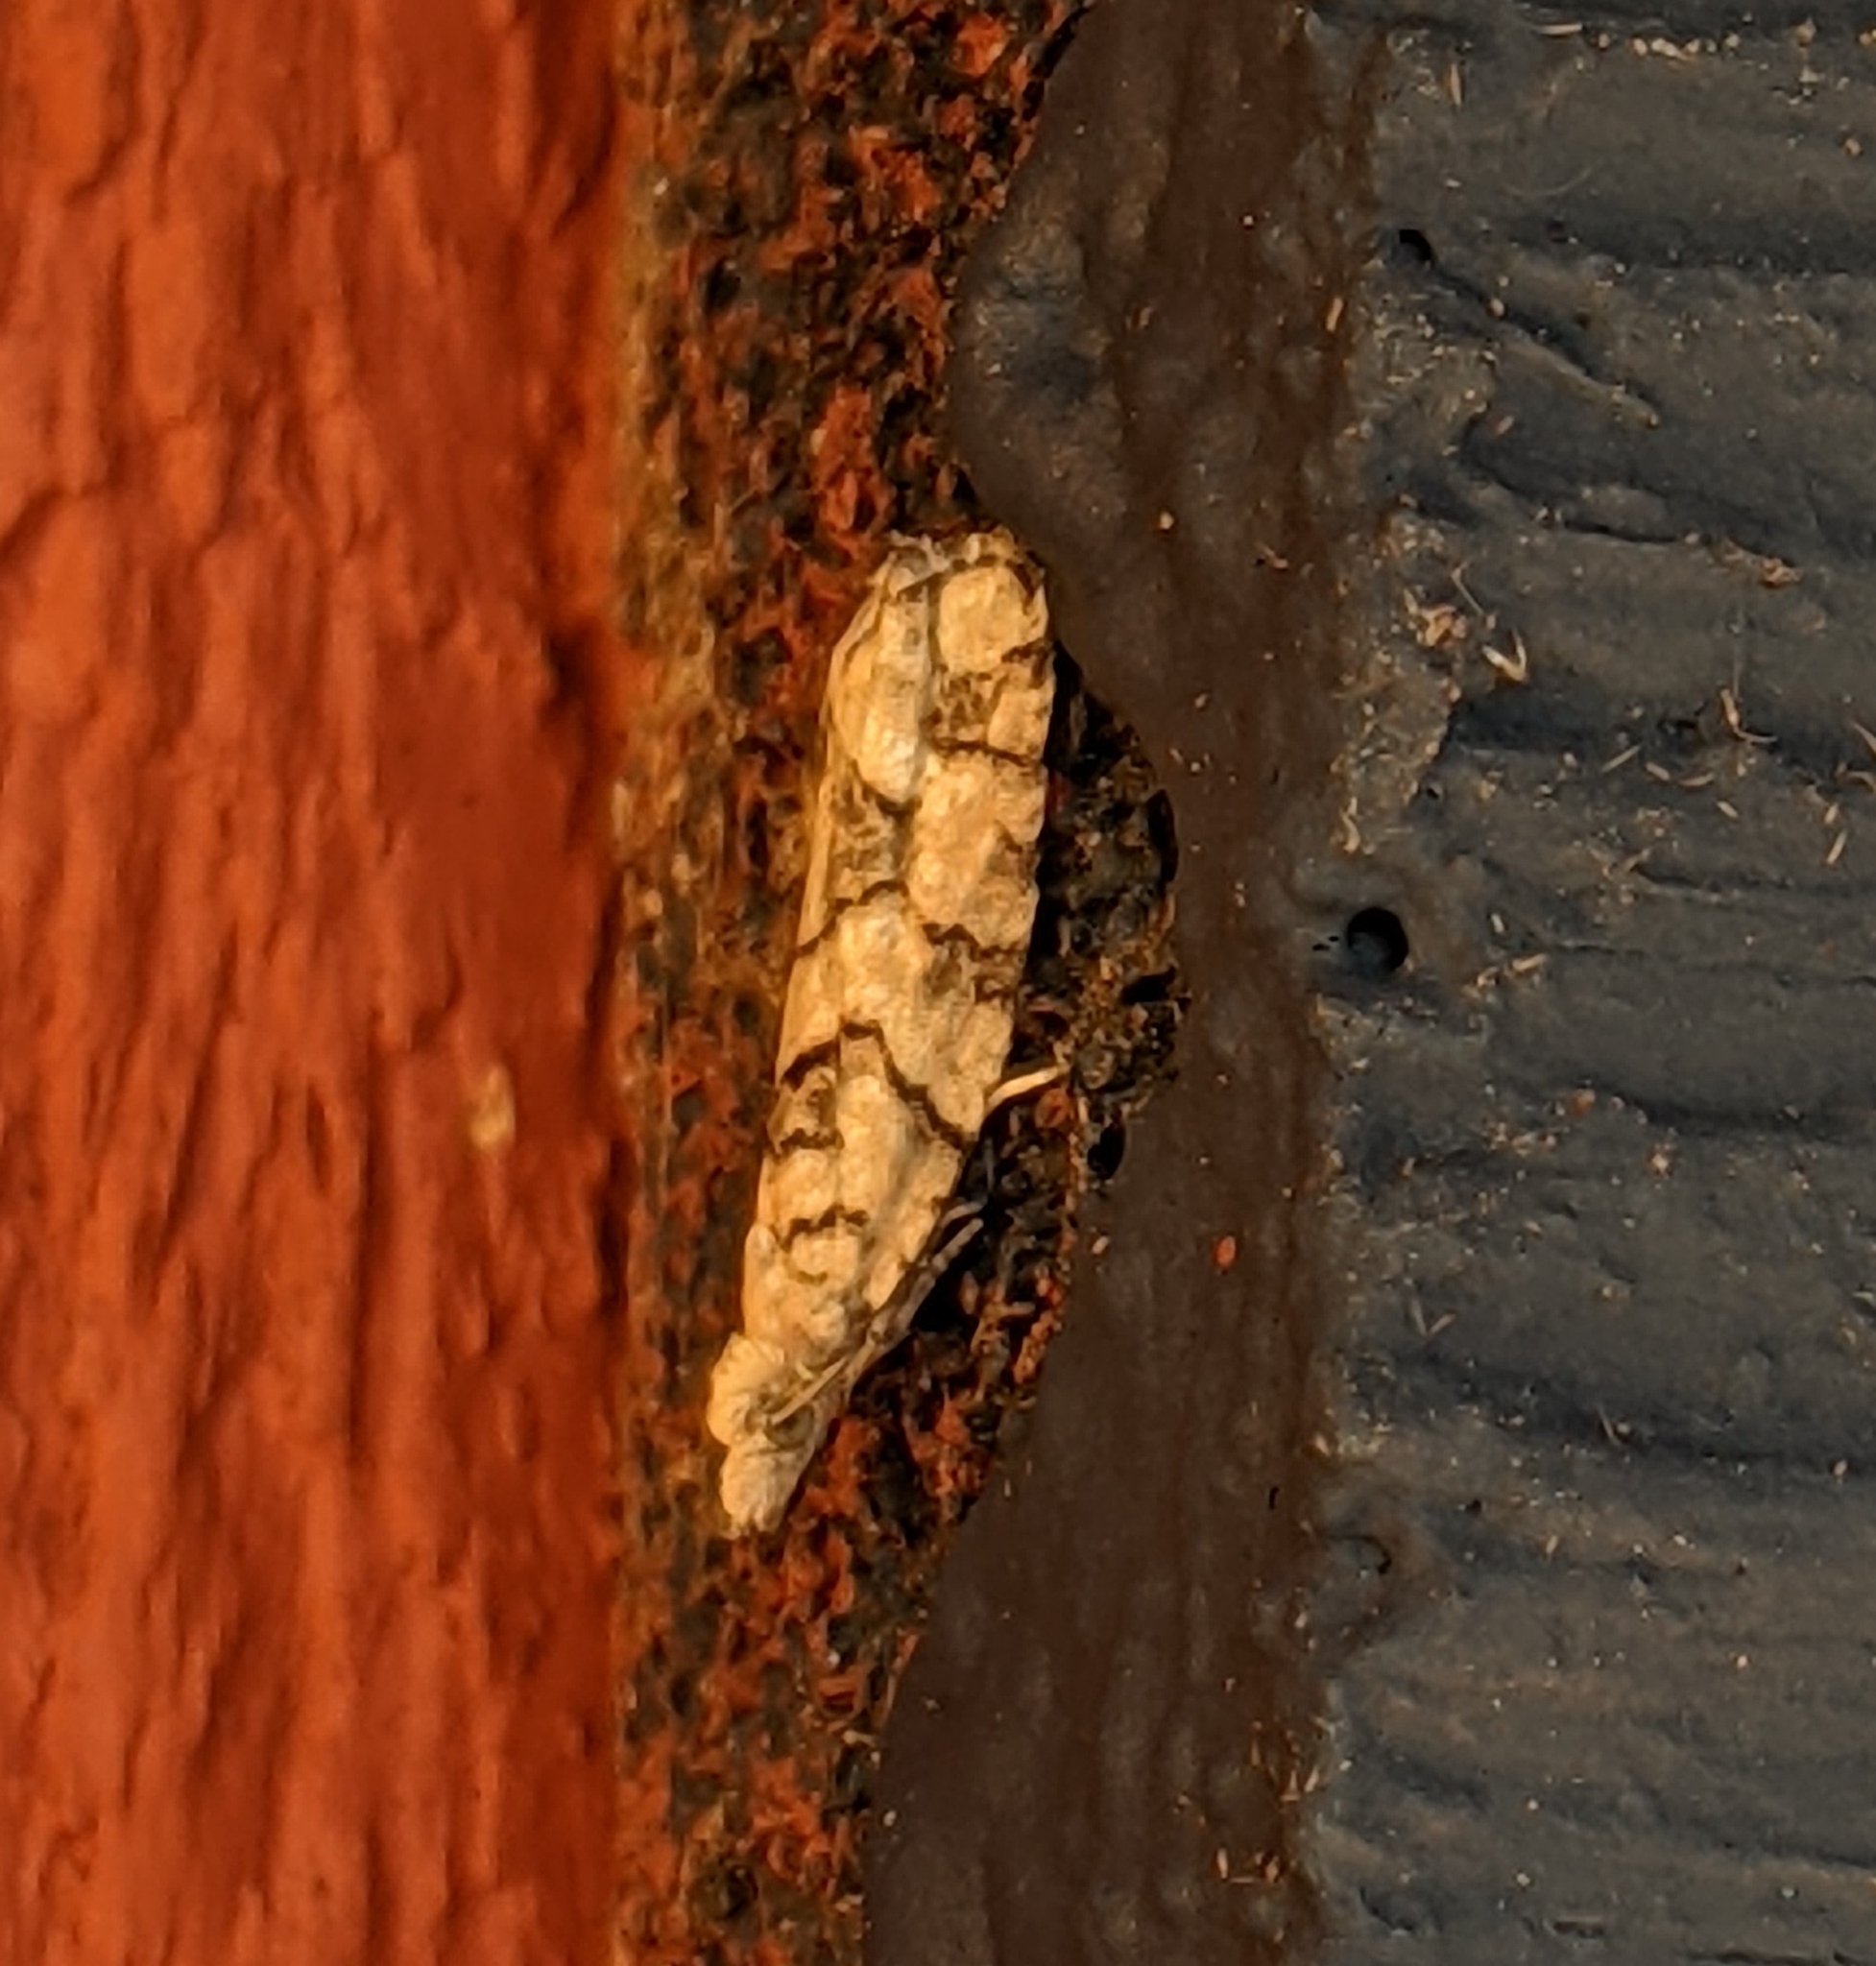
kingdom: Animalia
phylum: Arthropoda
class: Insecta
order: Lepidoptera
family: Tortricidae
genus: Epinotia
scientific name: Epinotia subviridis
